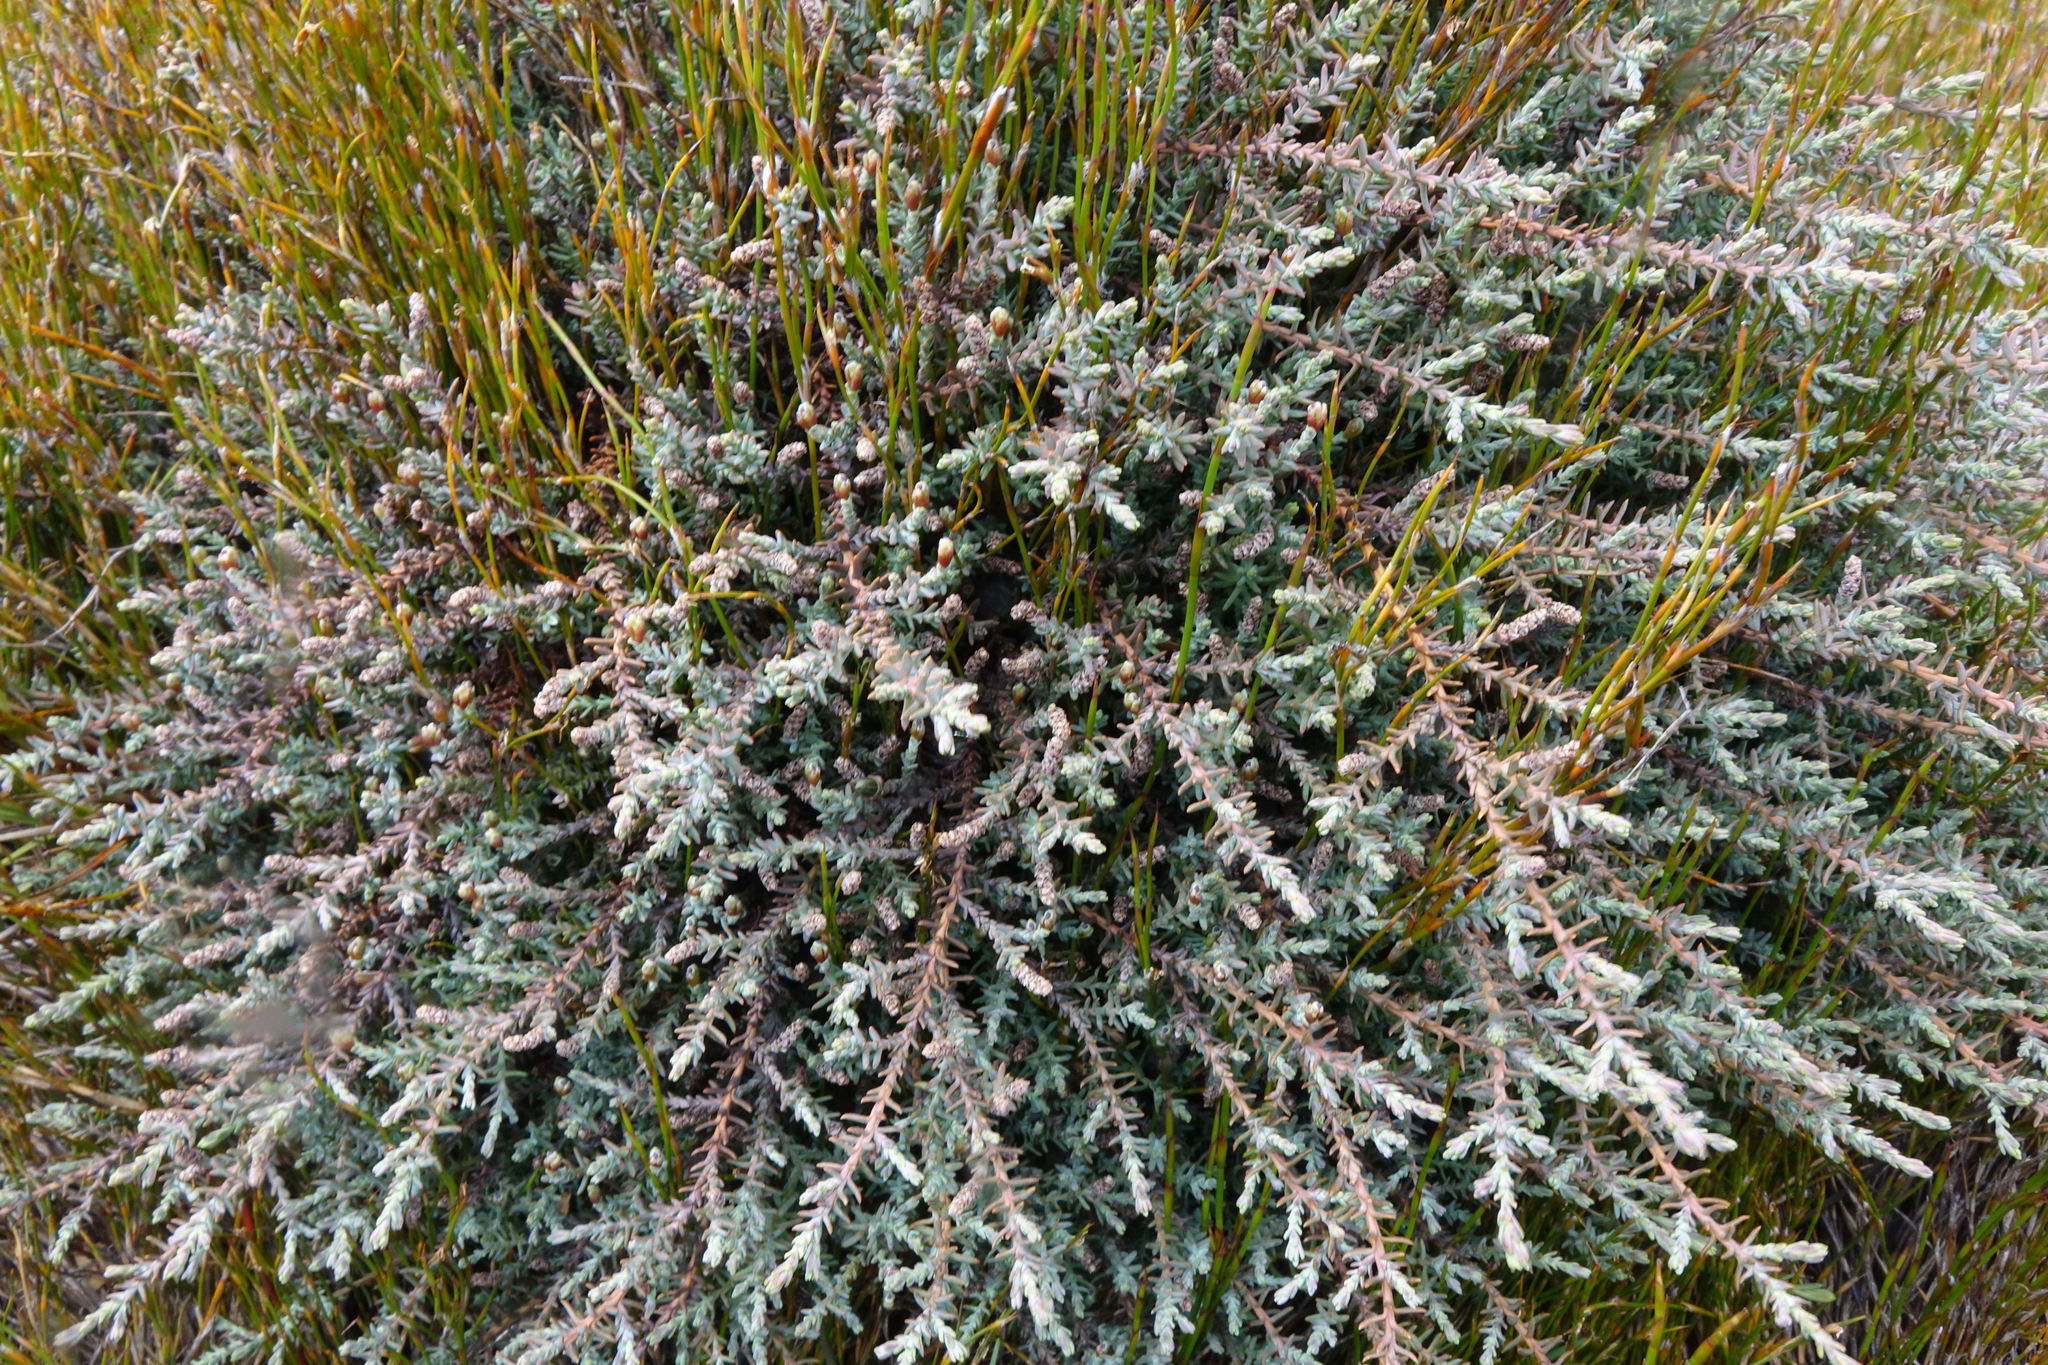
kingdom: Plantae
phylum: Tracheophyta
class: Pinopsida
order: Pinales
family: Podocarpaceae
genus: Lepidothamnus
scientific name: Lepidothamnus laxifolius
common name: Pygmy pine
